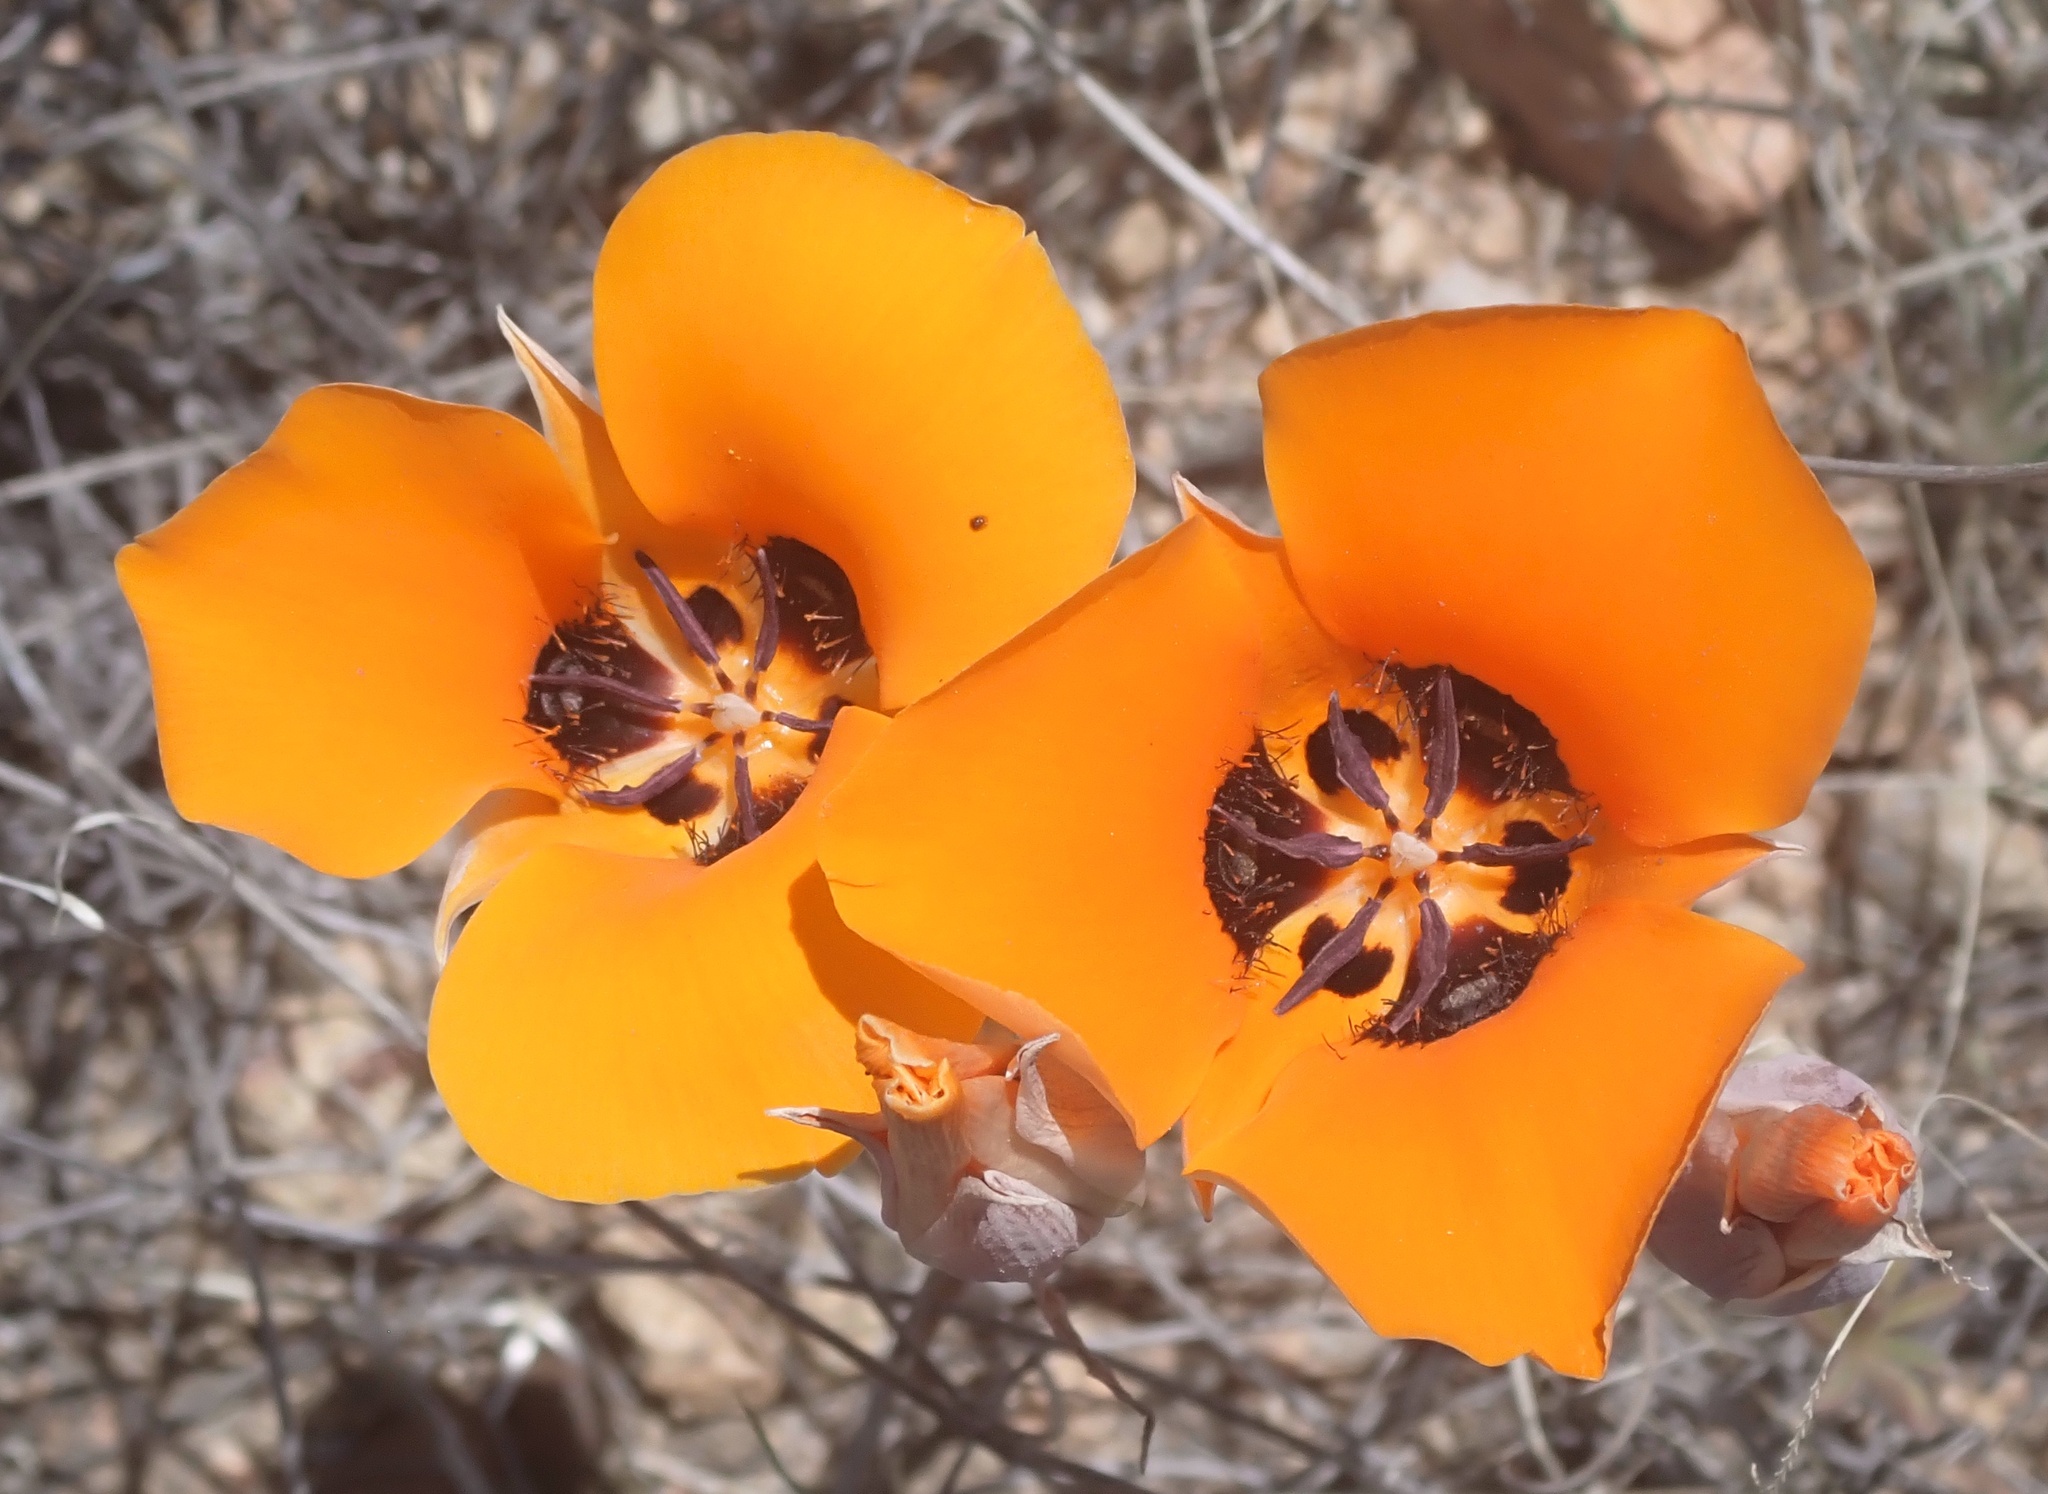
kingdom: Plantae
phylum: Tracheophyta
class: Liliopsida
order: Liliales
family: Liliaceae
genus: Calochortus
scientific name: Calochortus kennedyi
